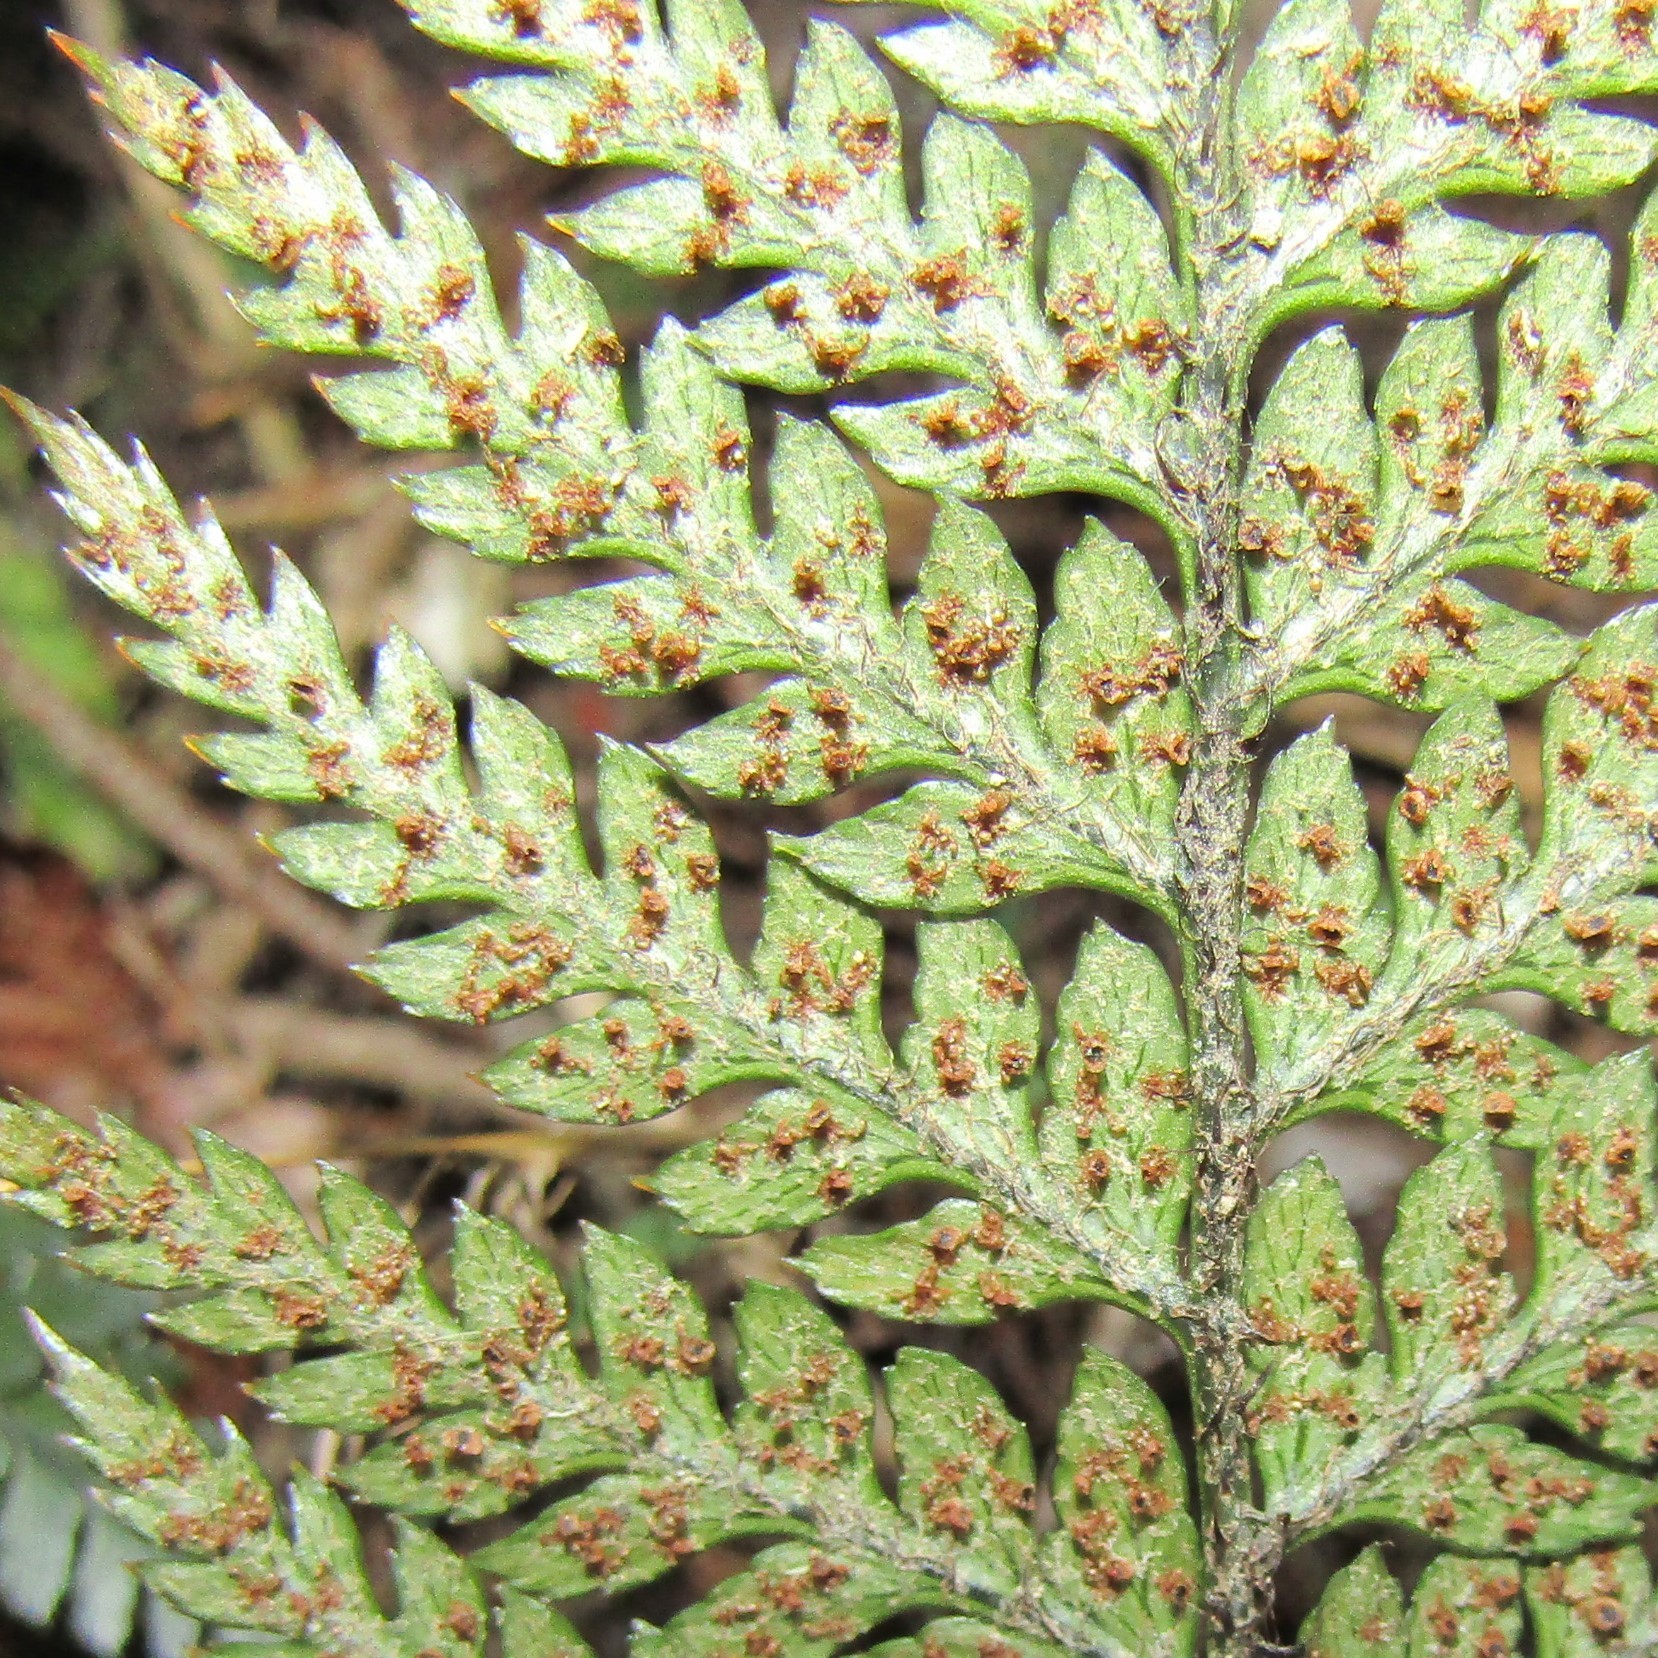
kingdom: Plantae
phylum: Tracheophyta
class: Polypodiopsida
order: Polypodiales
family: Dryopteridaceae
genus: Polystichum
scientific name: Polystichum neozelandicum
